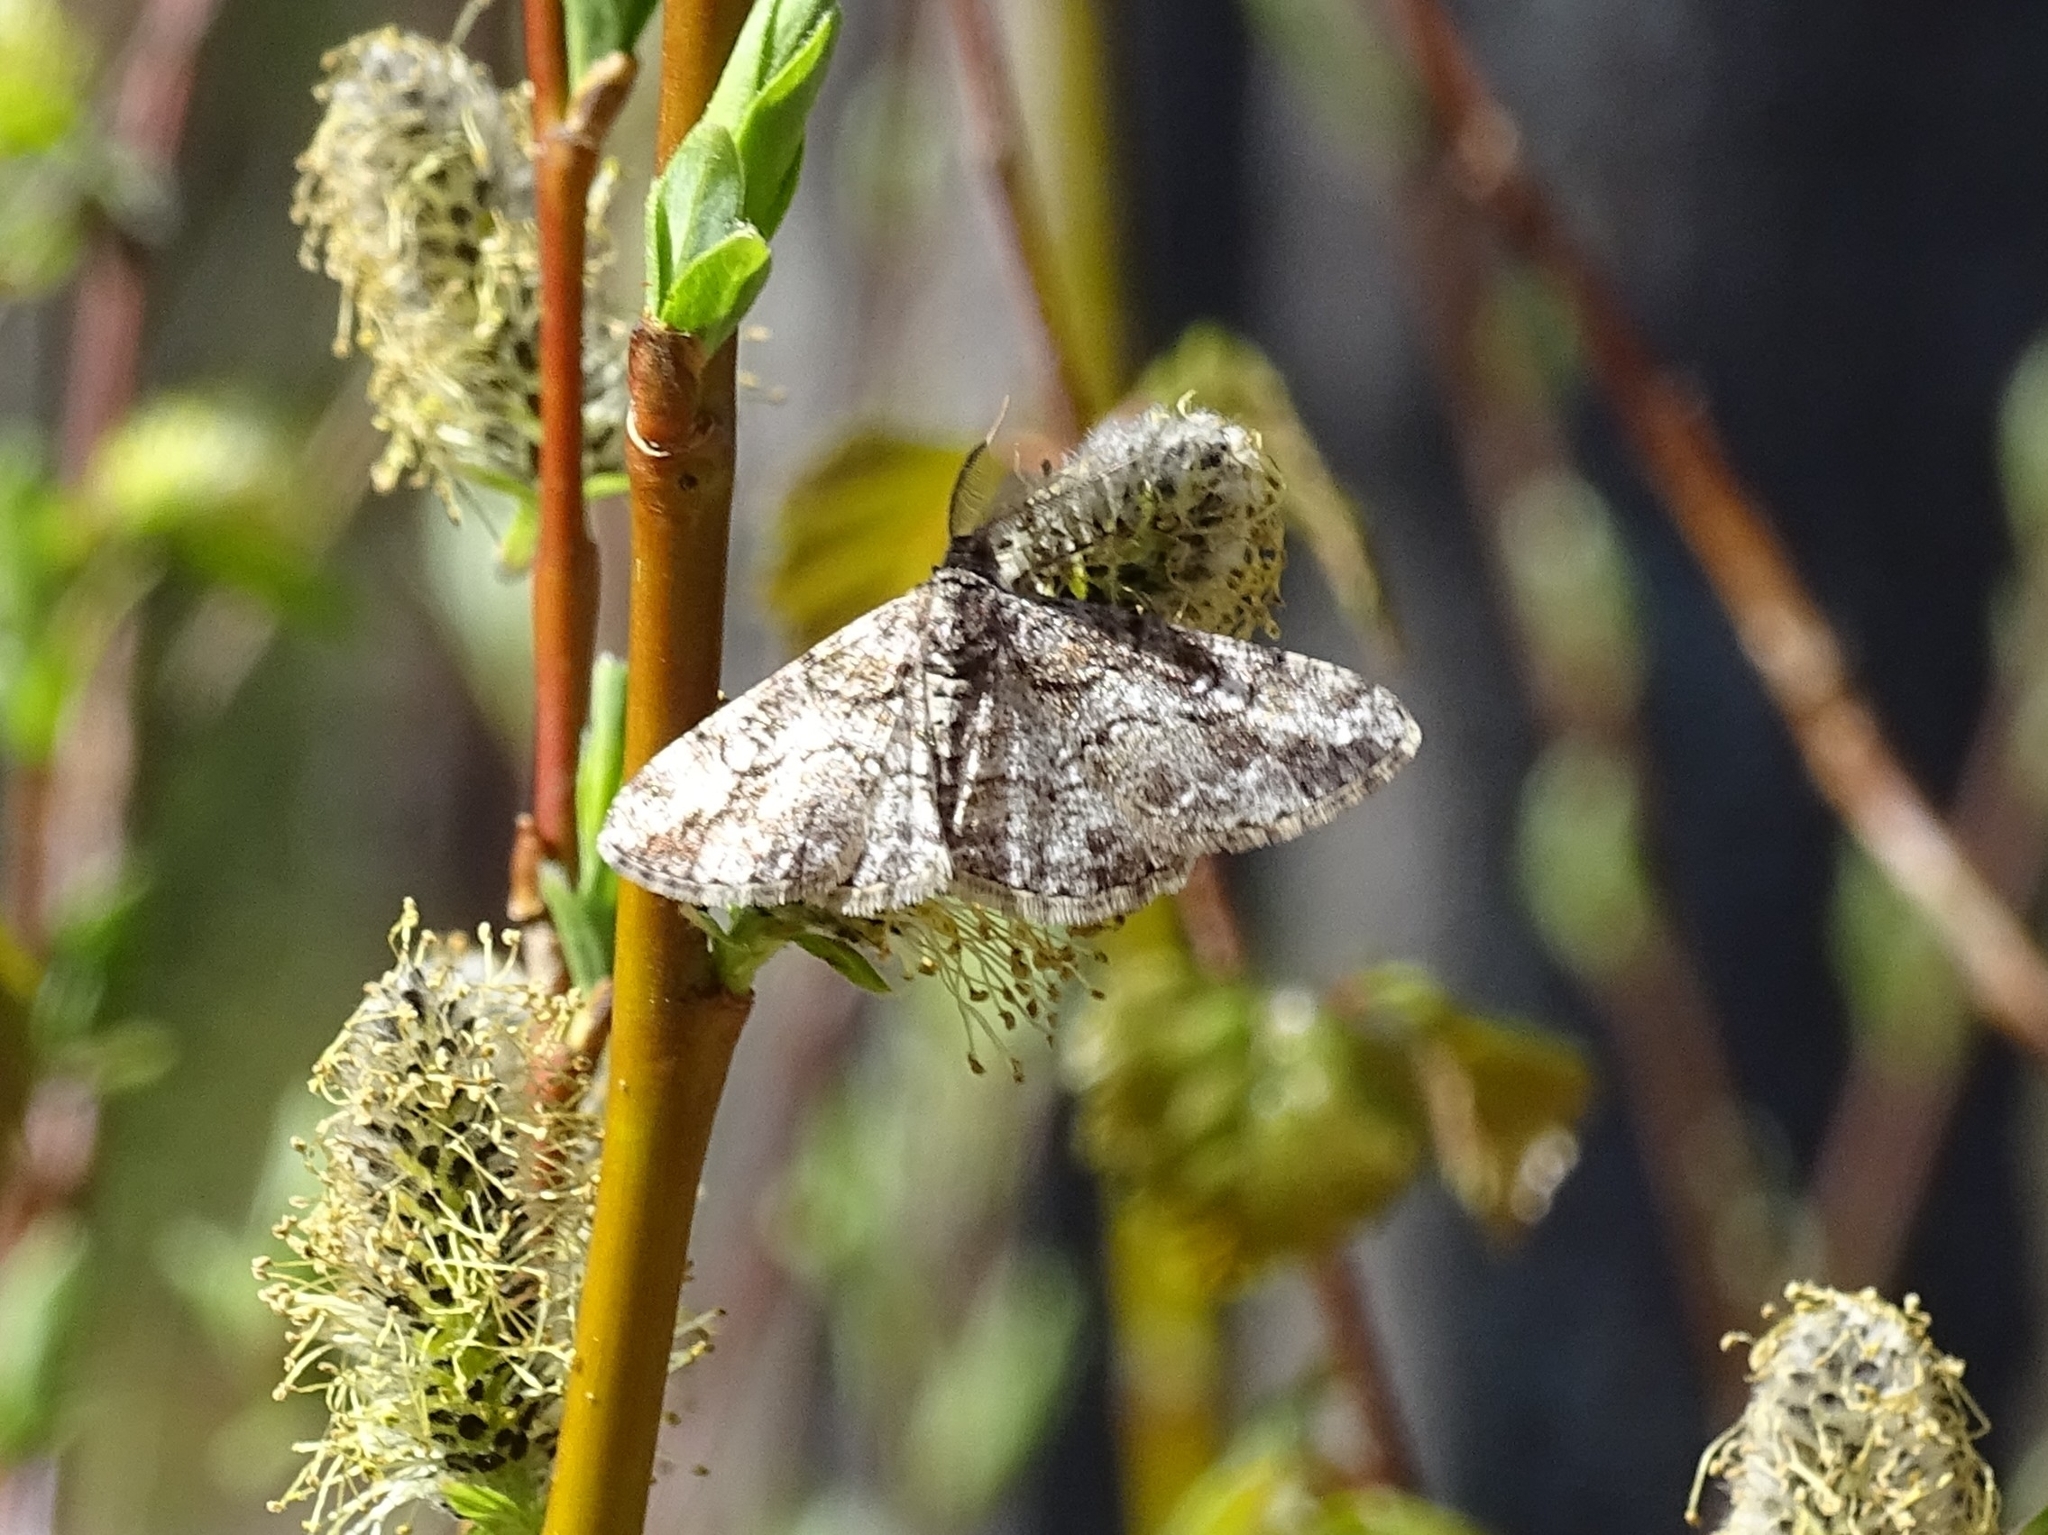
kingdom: Animalia
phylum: Arthropoda
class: Insecta
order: Lepidoptera
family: Geometridae
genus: Cleora
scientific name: Cleora cinctaria
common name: Ringed carpet
